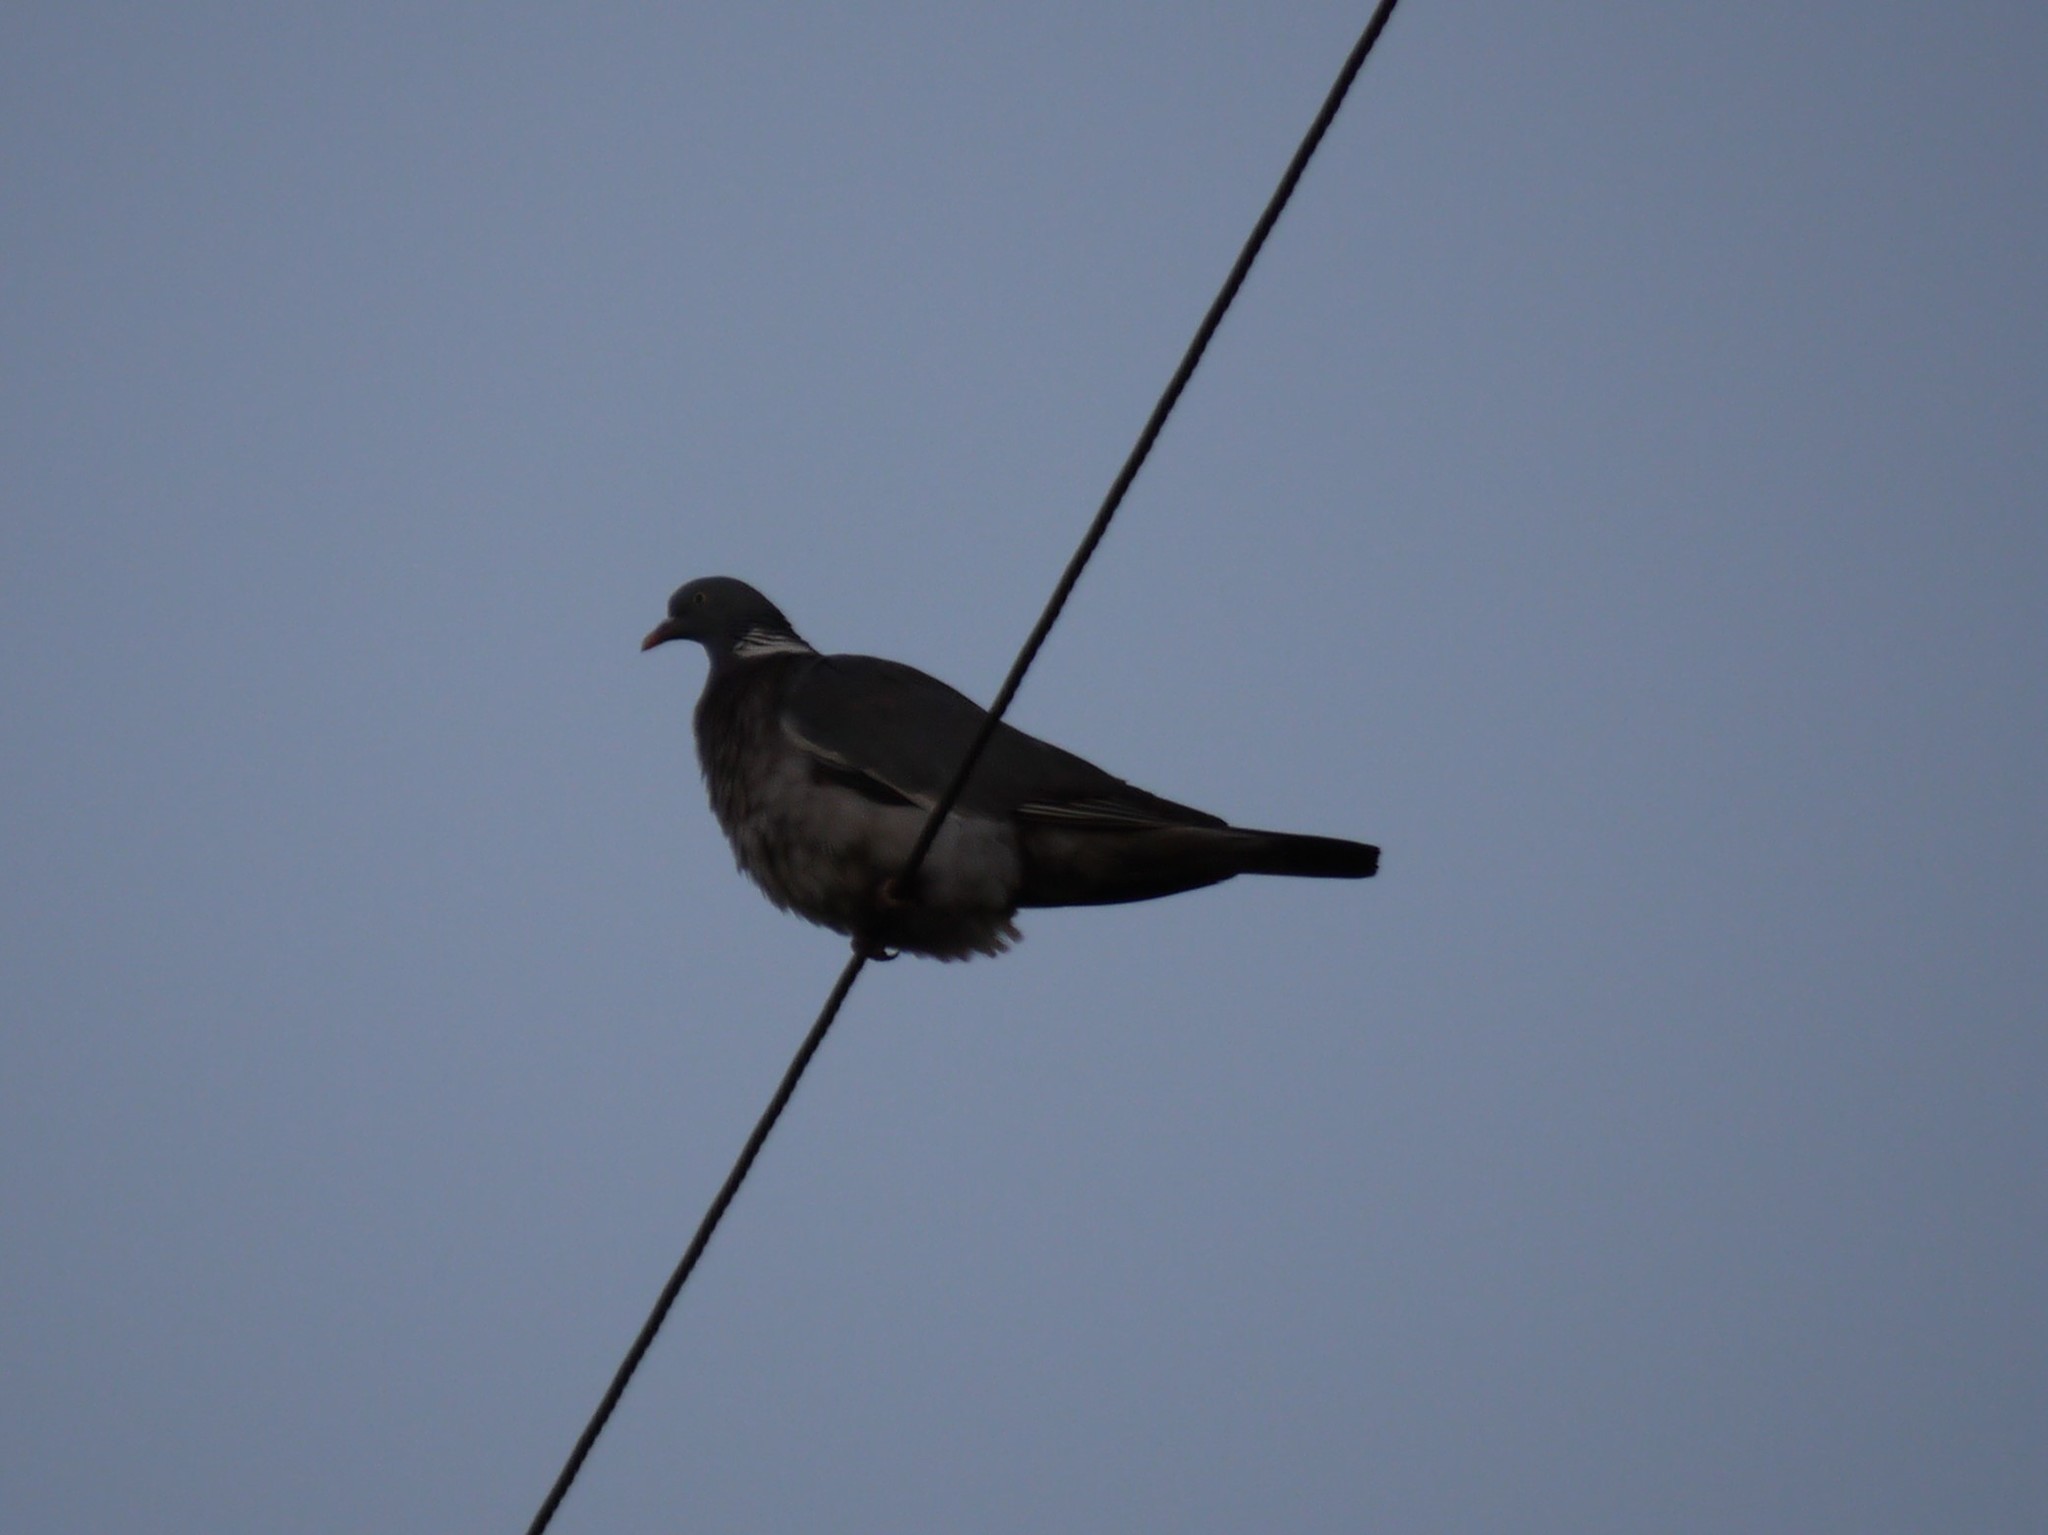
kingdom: Animalia
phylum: Chordata
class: Aves
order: Columbiformes
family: Columbidae
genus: Columba
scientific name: Columba palumbus
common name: Common wood pigeon
